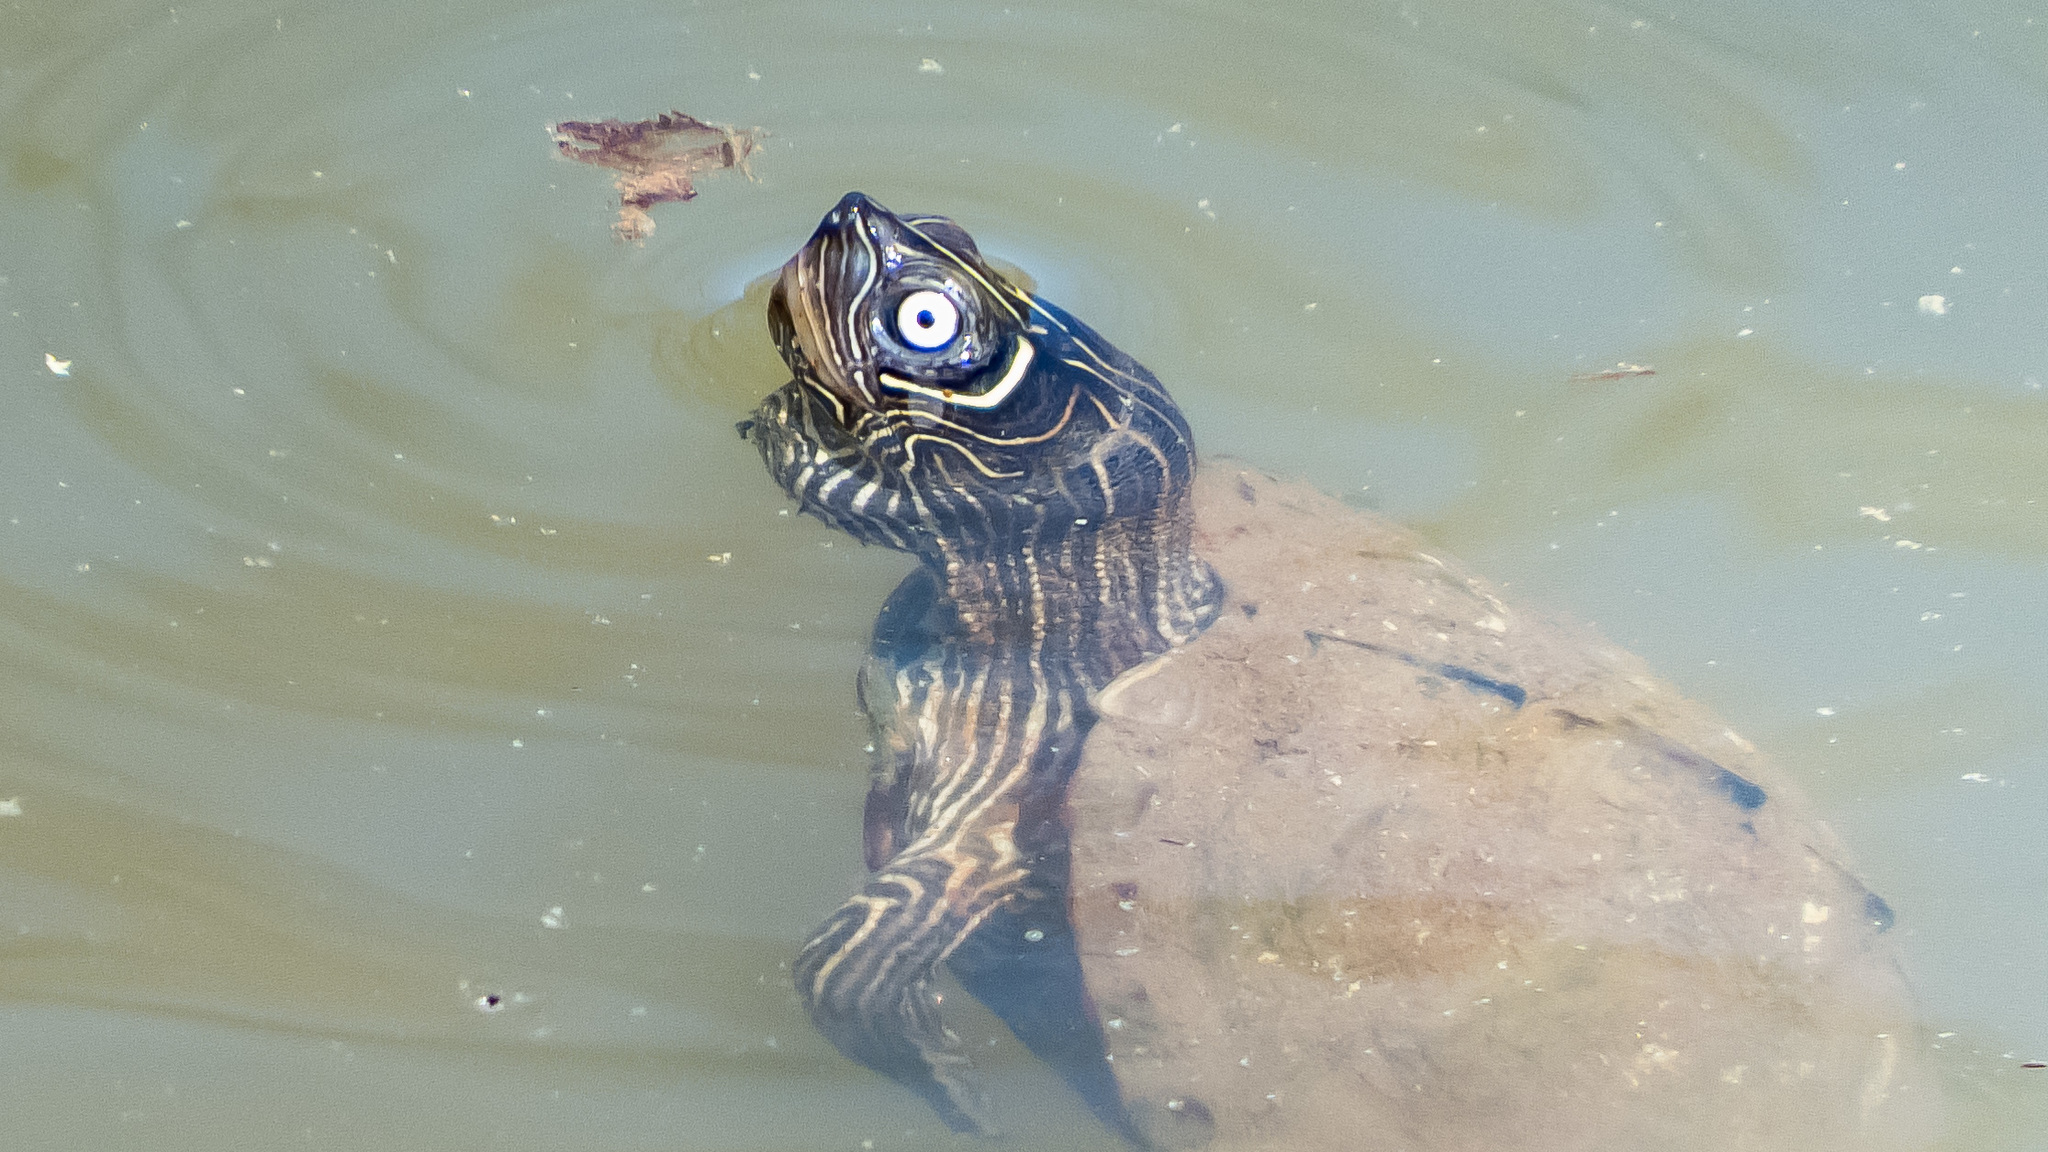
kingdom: Animalia
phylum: Chordata
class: Testudines
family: Emydidae
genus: Graptemys
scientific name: Graptemys pseudogeographica
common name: False map turtle
